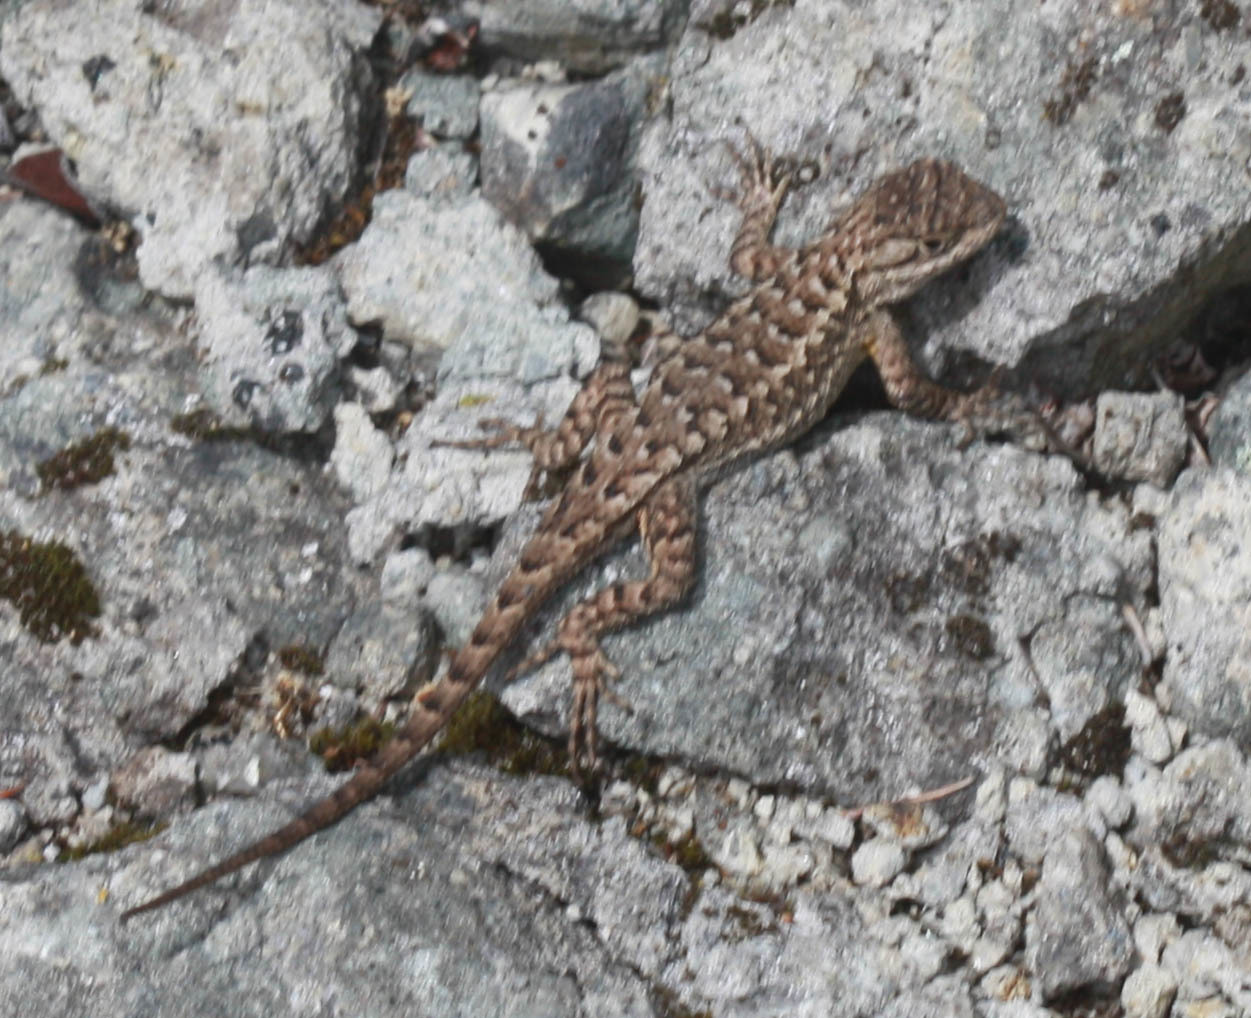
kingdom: Animalia
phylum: Chordata
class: Squamata
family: Phrynosomatidae
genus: Sceloporus
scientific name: Sceloporus occidentalis
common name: Western fence lizard
